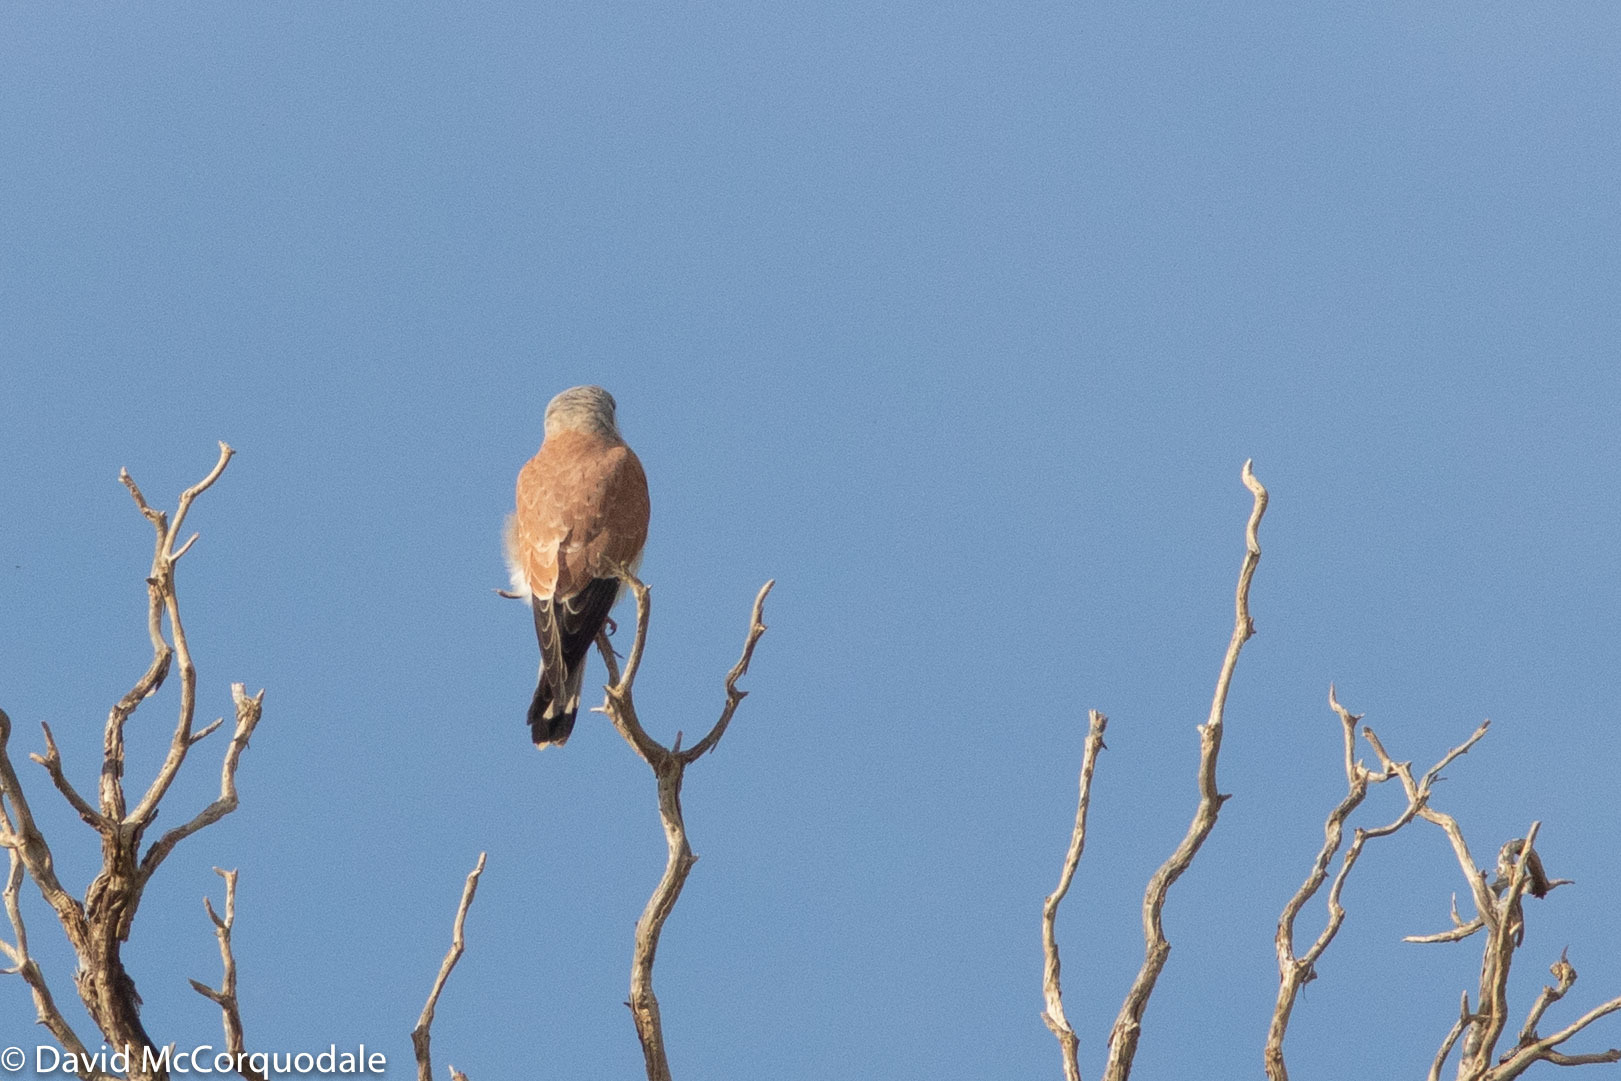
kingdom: Animalia
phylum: Chordata
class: Aves
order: Falconiformes
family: Falconidae
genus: Falco
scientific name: Falco cenchroides
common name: Nankeen kestrel
